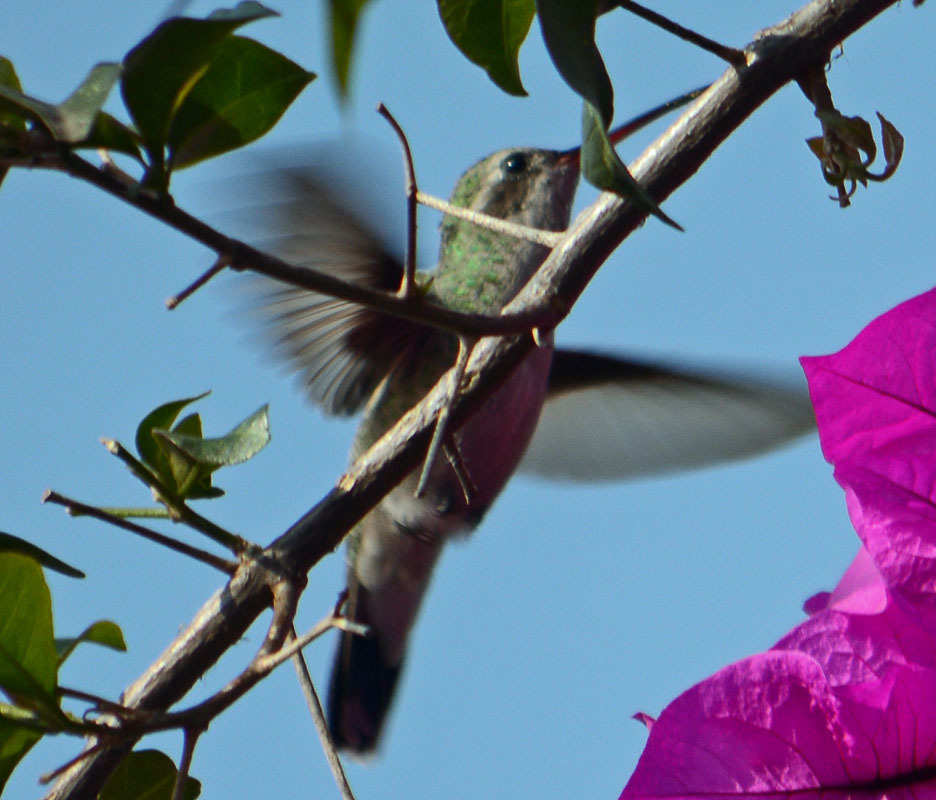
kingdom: Animalia
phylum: Chordata
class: Aves
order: Apodiformes
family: Trochilidae
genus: Cynanthus
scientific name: Cynanthus latirostris
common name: Broad-billed hummingbird
